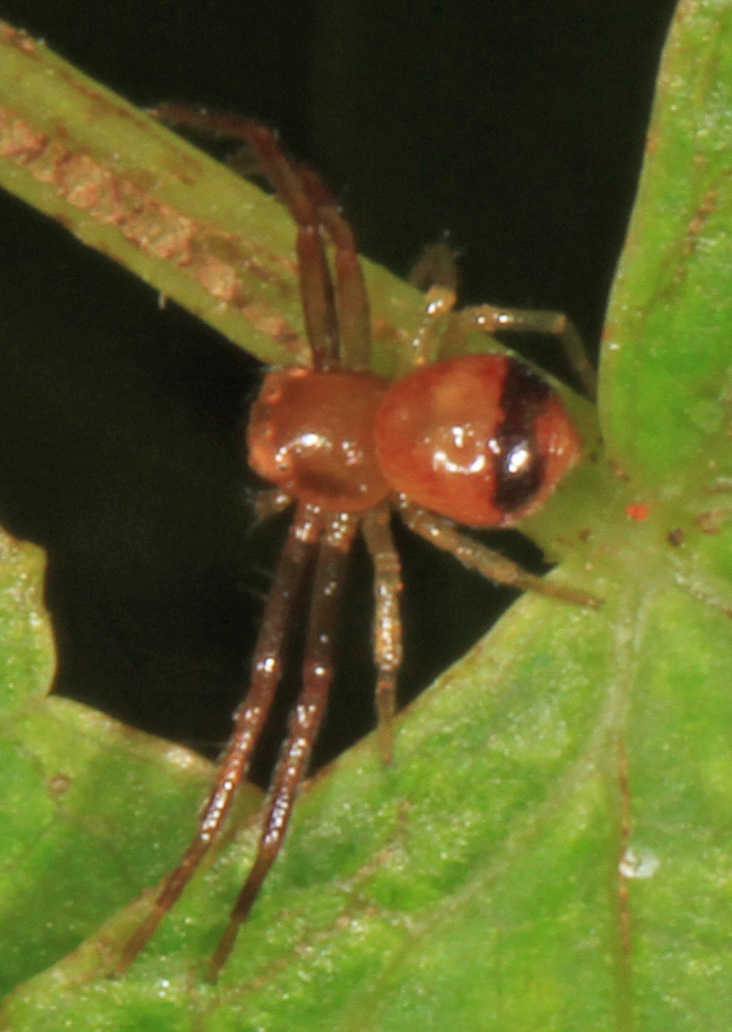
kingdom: Animalia
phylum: Arthropoda
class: Arachnida
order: Araneae
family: Thomisidae
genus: Synema
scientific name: Synema parvulum
